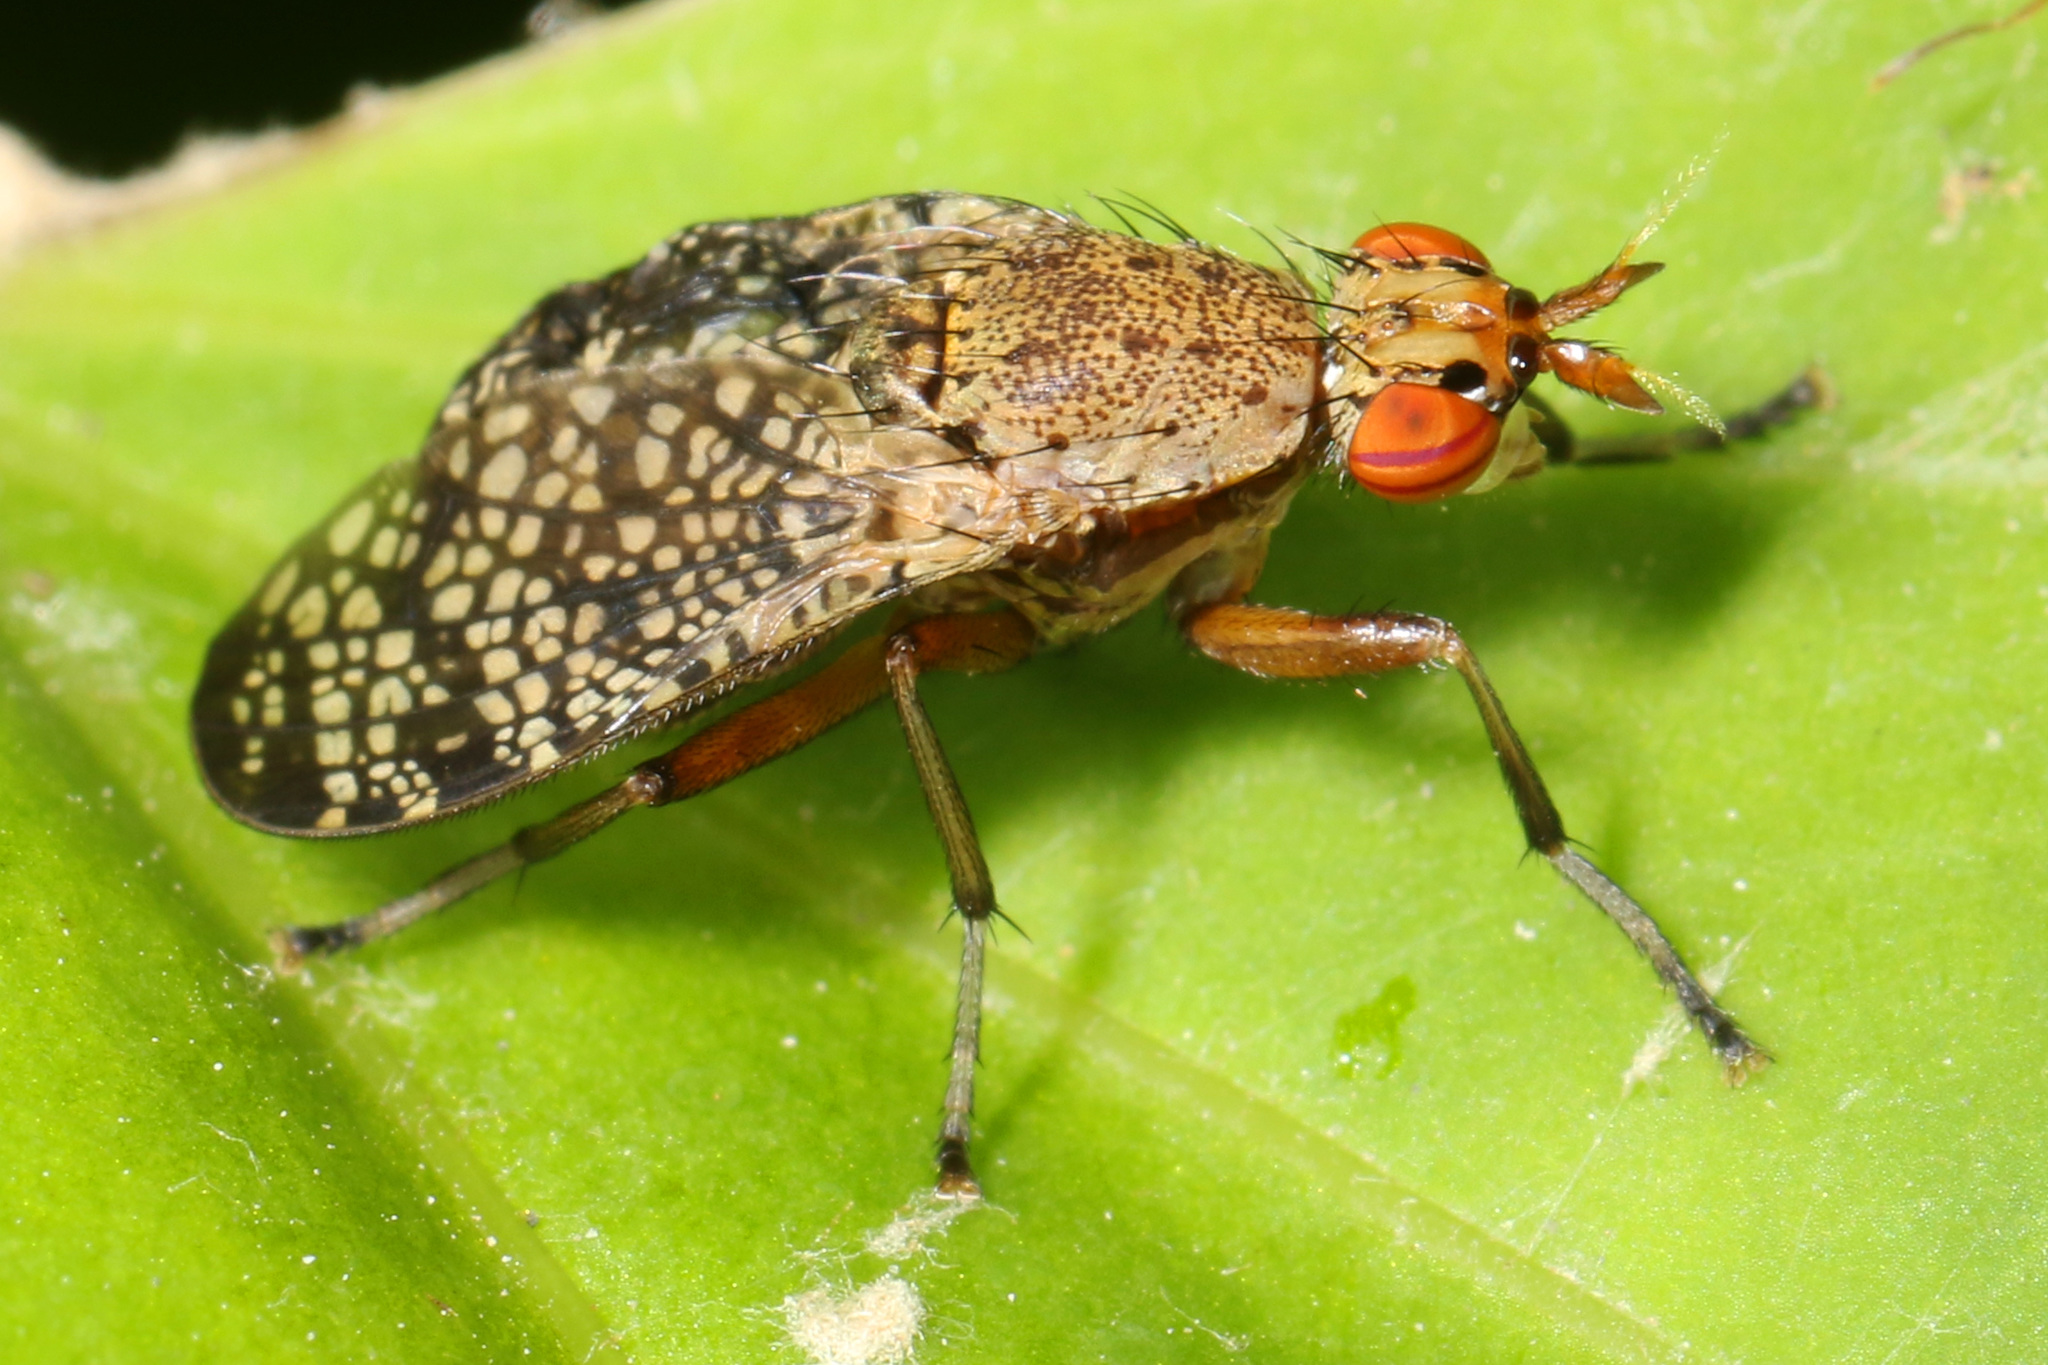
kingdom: Animalia
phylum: Arthropoda
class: Insecta
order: Diptera
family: Sciomyzidae
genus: Euthycera
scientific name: Euthycera flavescens
